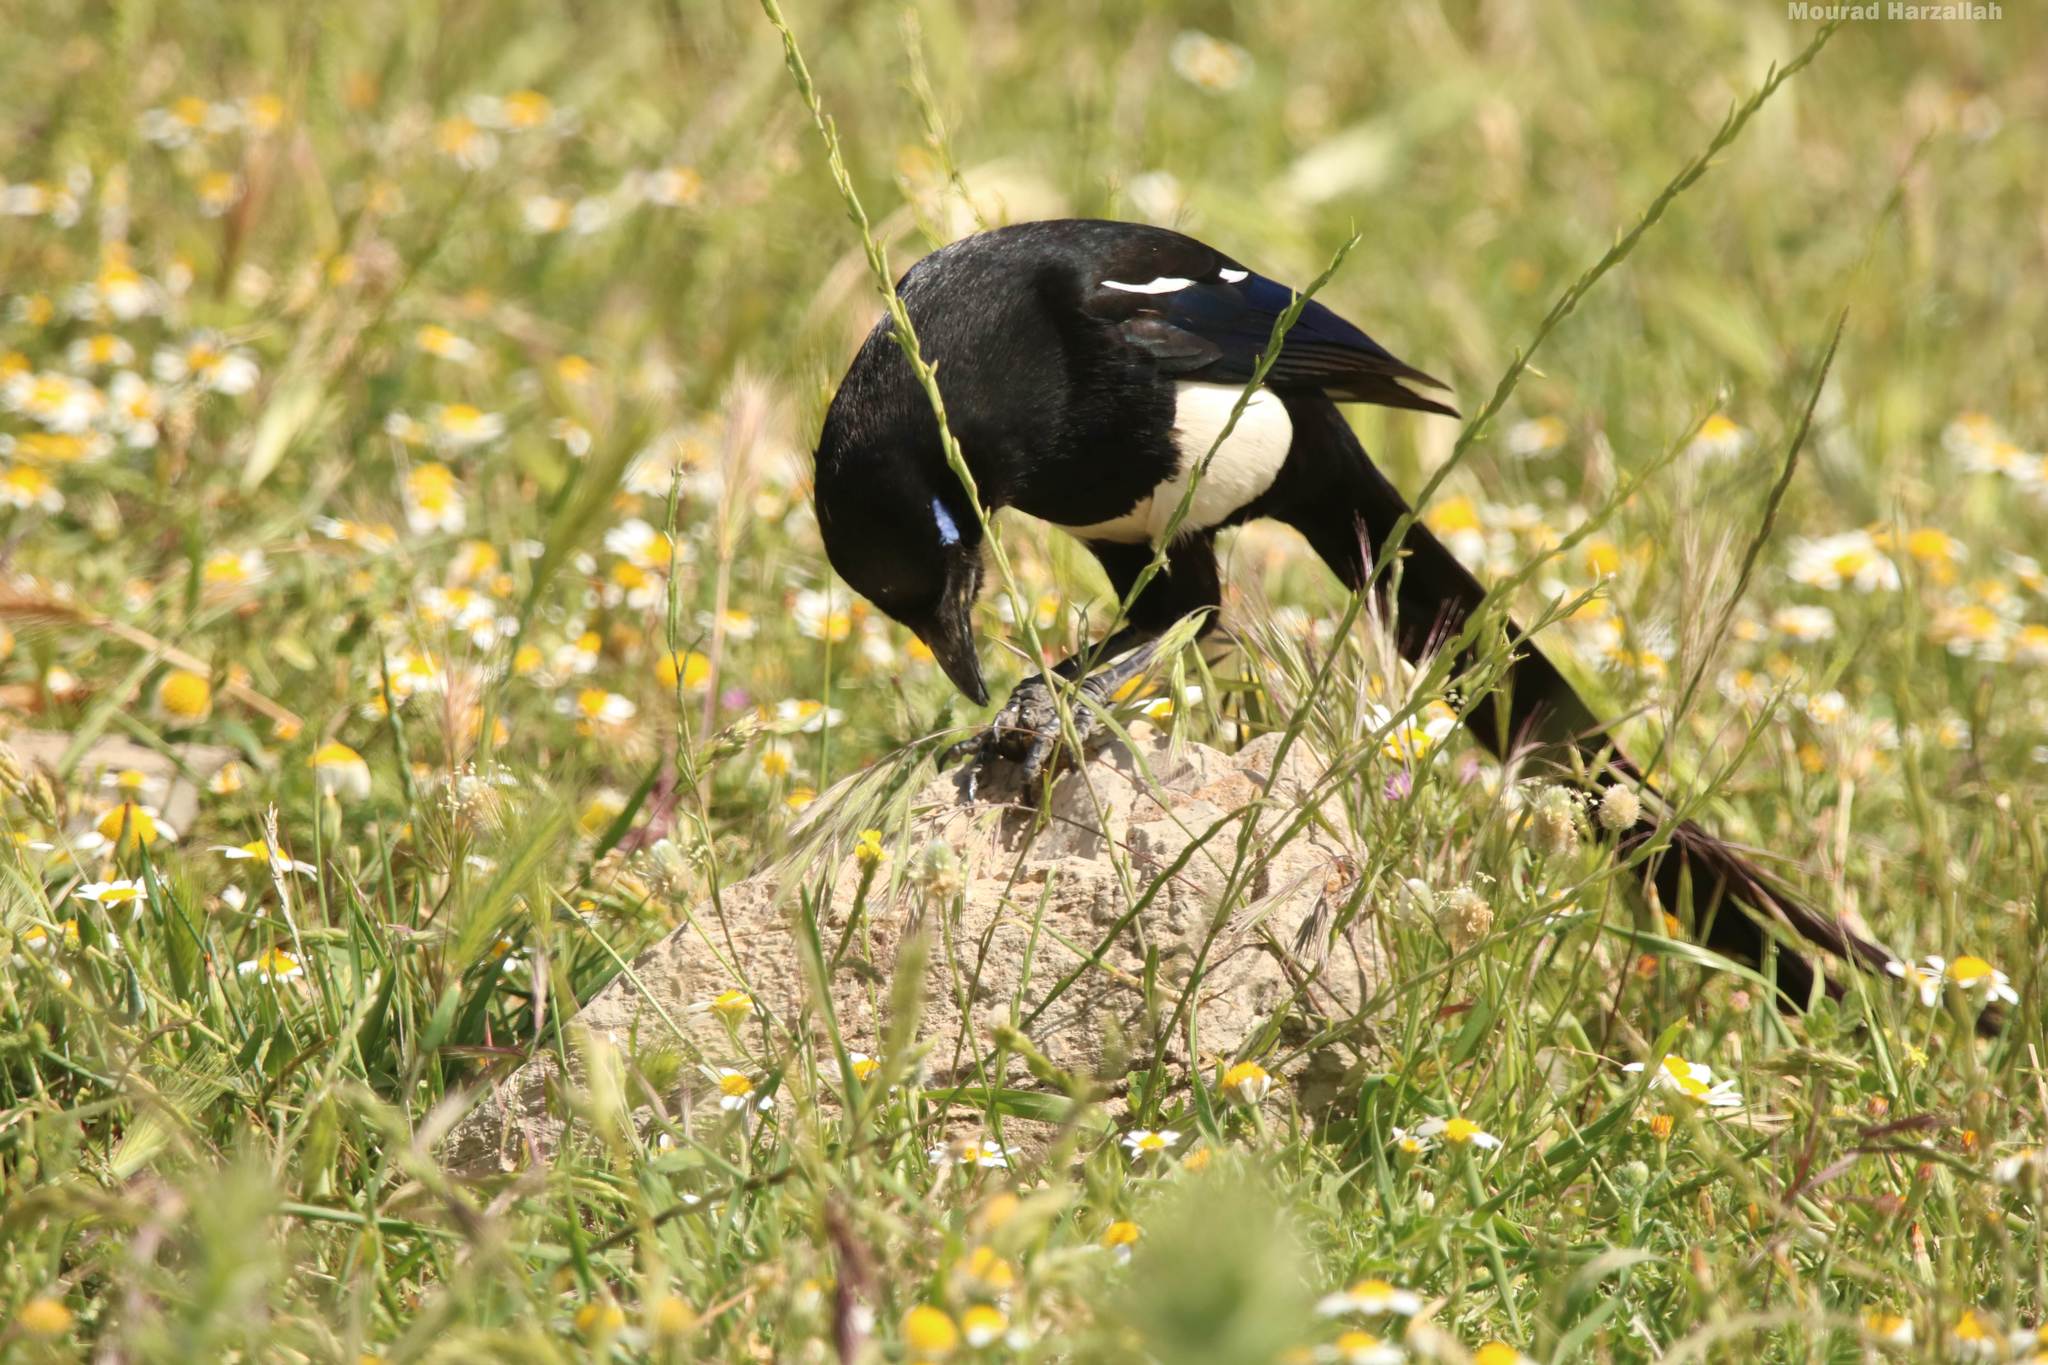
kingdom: Animalia
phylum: Chordata
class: Aves
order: Passeriformes
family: Corvidae
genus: Pica
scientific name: Pica mauritanica
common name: Maghreb magpie
